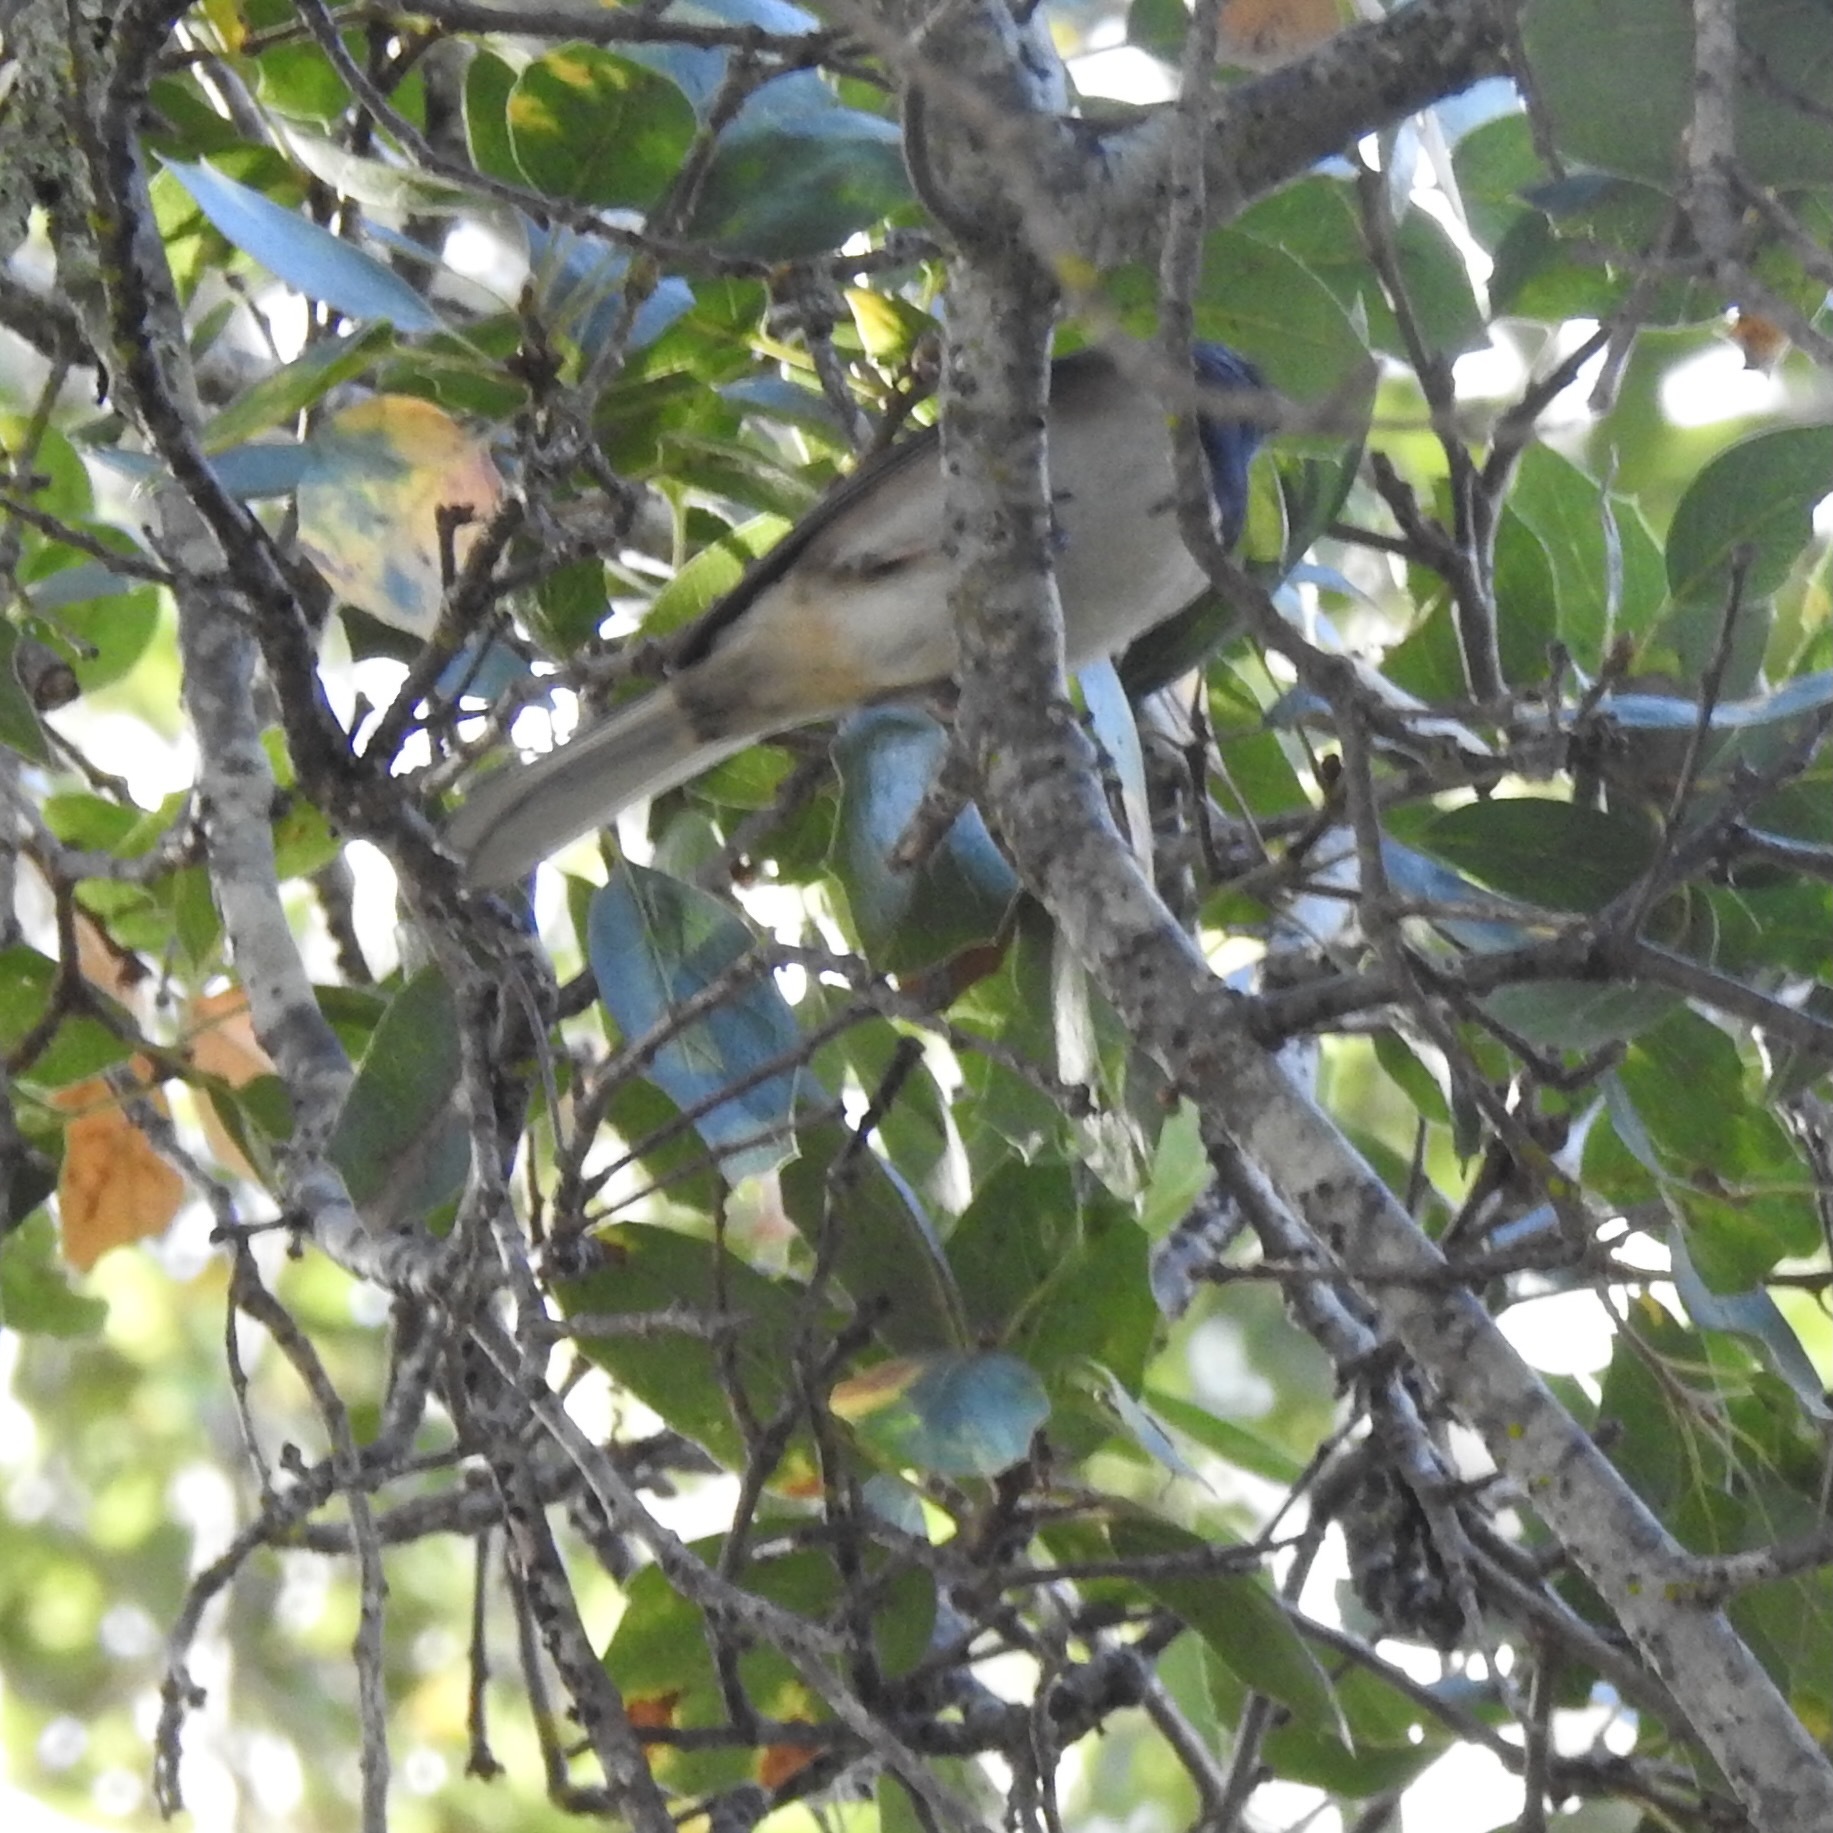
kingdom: Animalia
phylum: Chordata
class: Aves
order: Passeriformes
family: Passerellidae
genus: Junco
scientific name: Junco hyemalis
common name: Dark-eyed junco
